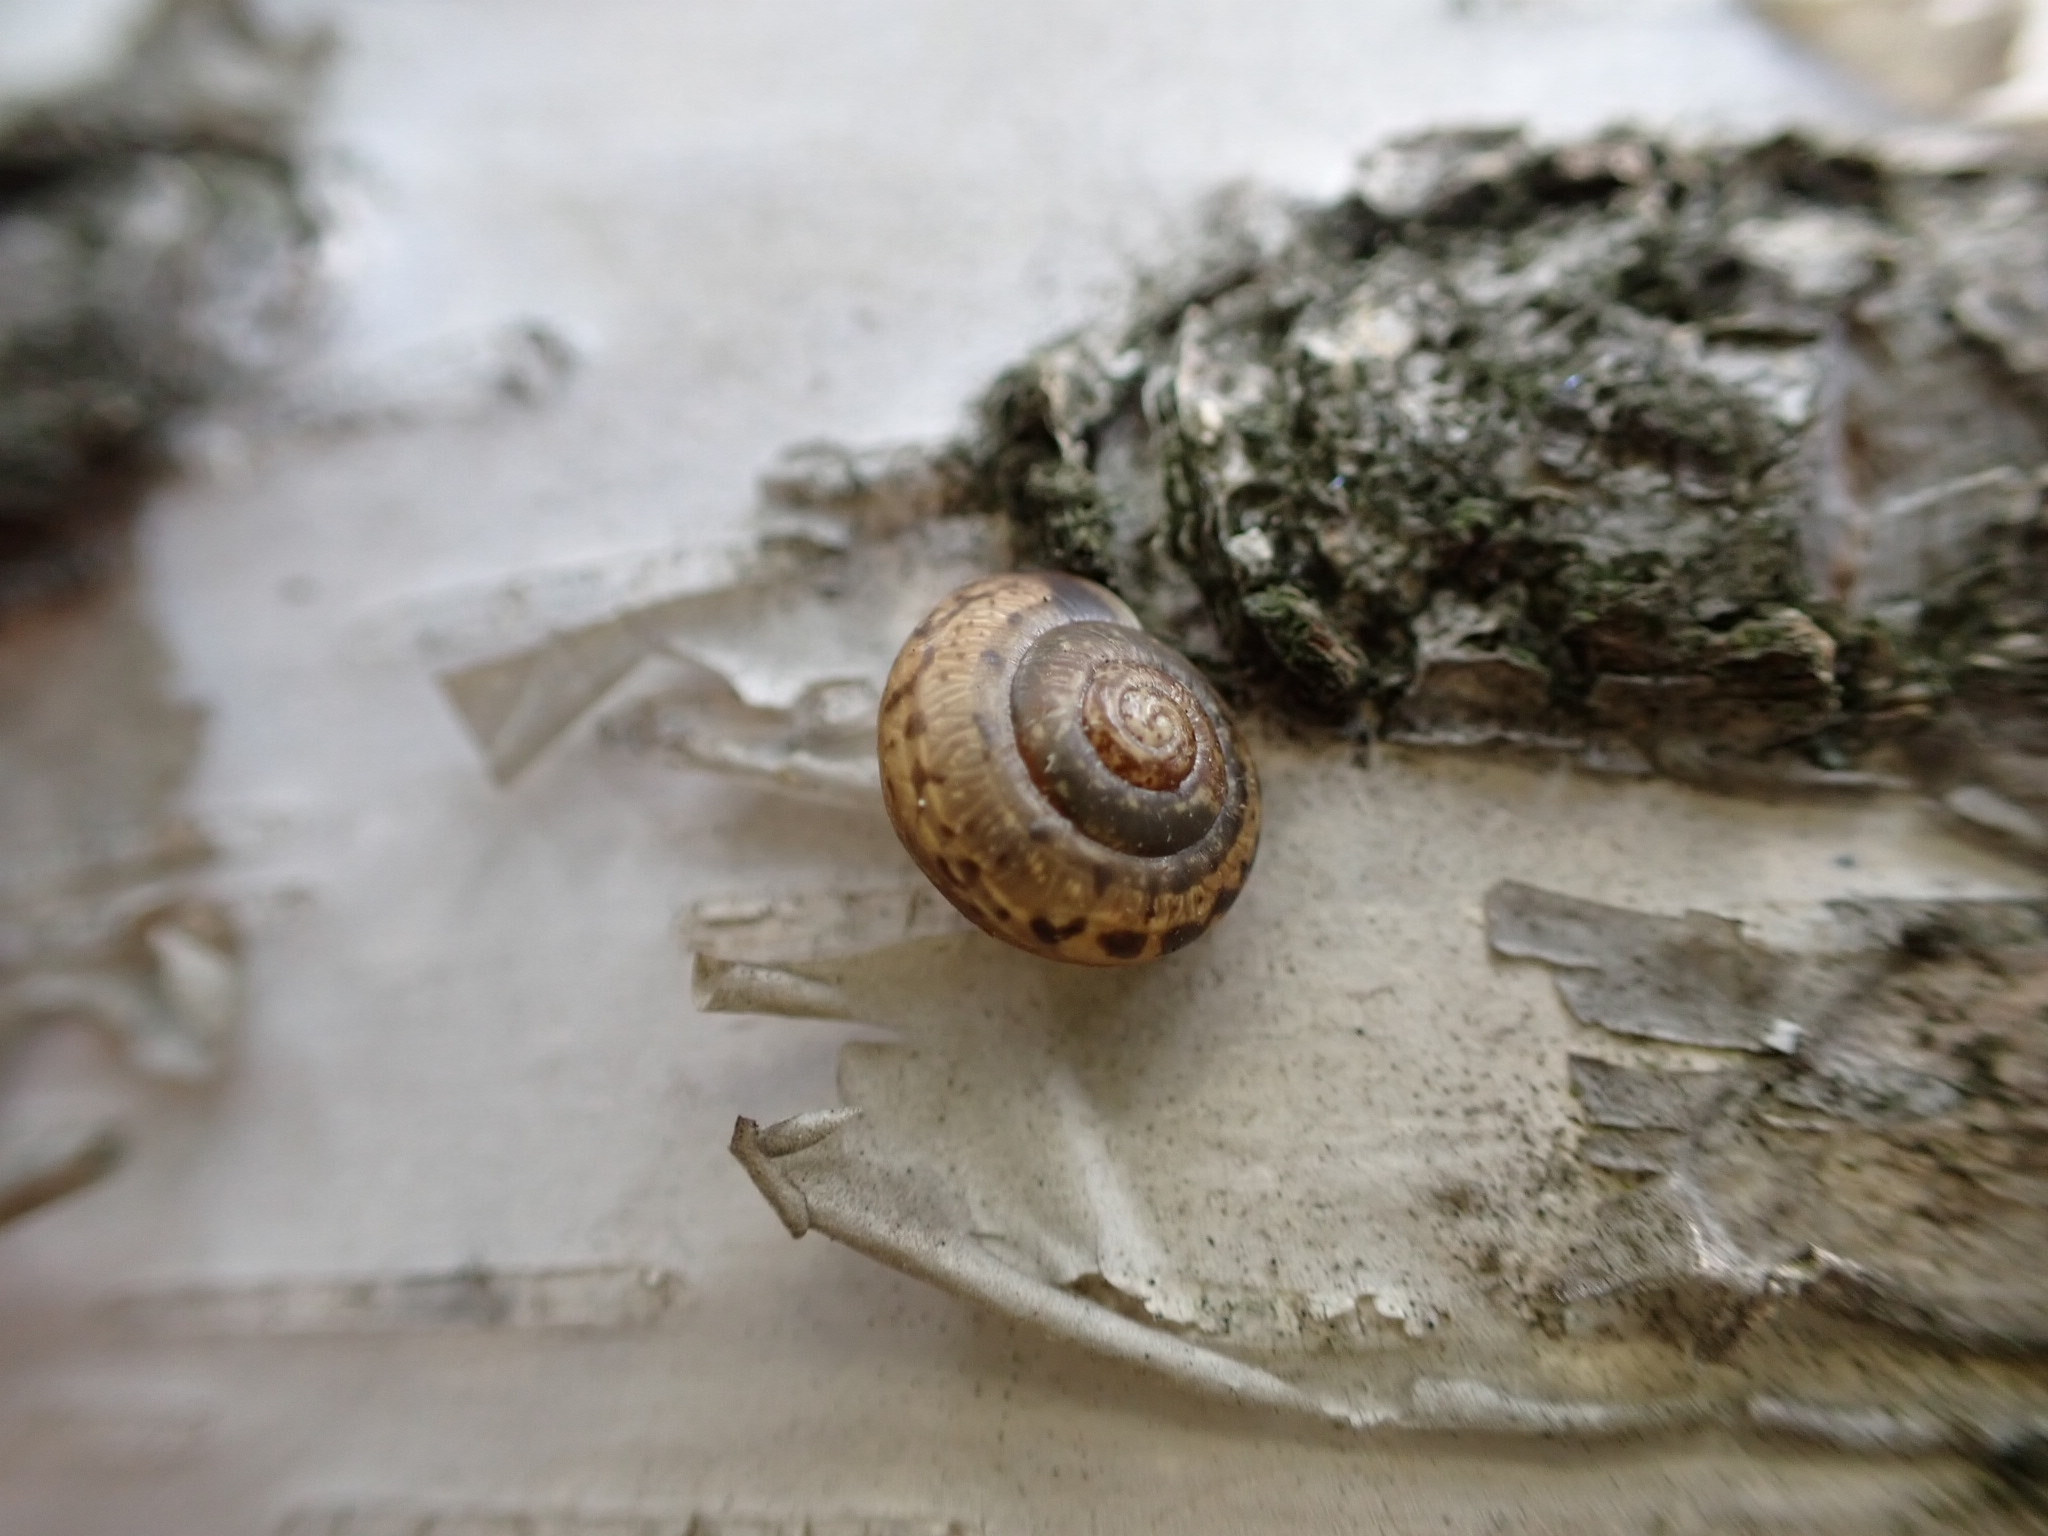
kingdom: Animalia
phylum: Mollusca
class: Gastropoda
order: Stylommatophora
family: Camaenidae
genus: Fruticicola
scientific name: Fruticicola fruticum
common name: Bush snail
